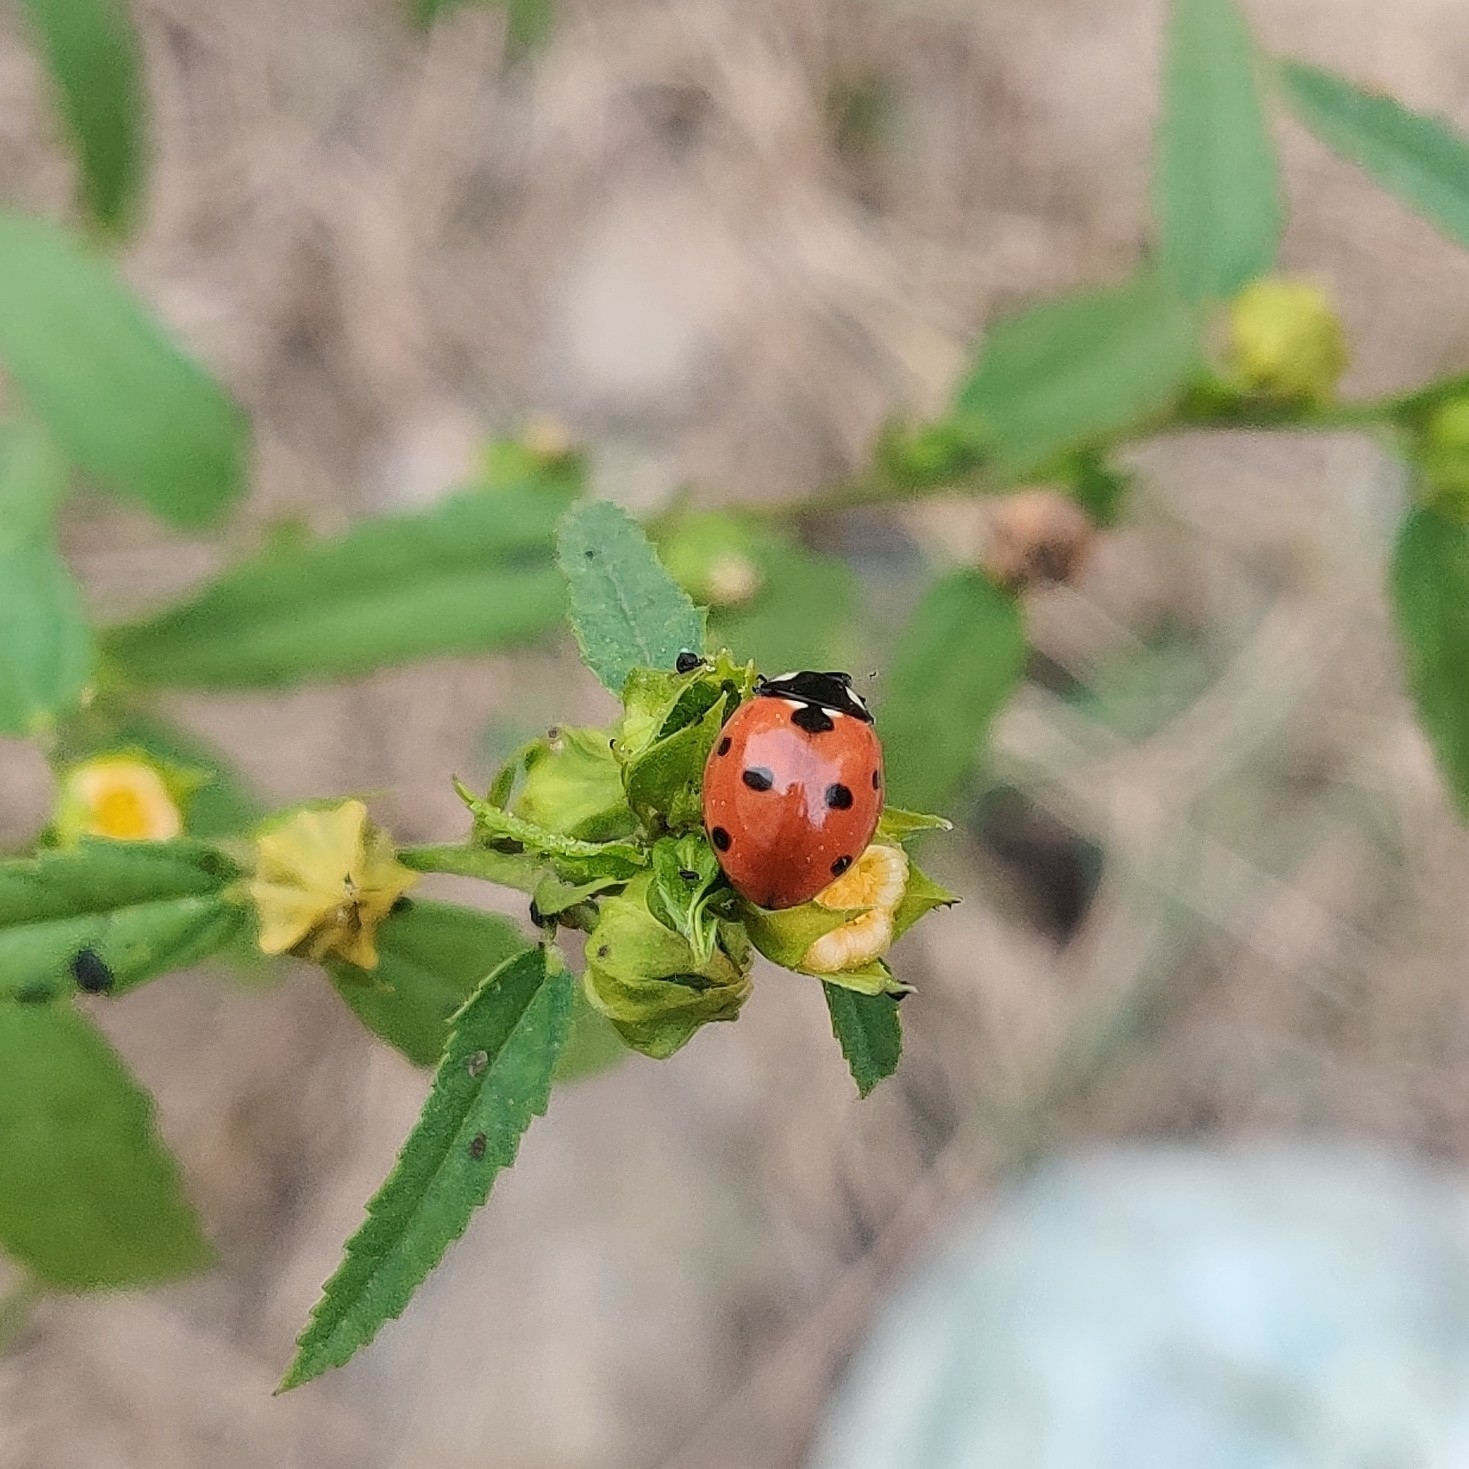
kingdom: Animalia
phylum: Arthropoda
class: Insecta
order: Coleoptera
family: Coccinellidae
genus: Coccinella
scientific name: Coccinella septempunctata
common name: Sevenspotted lady beetle
